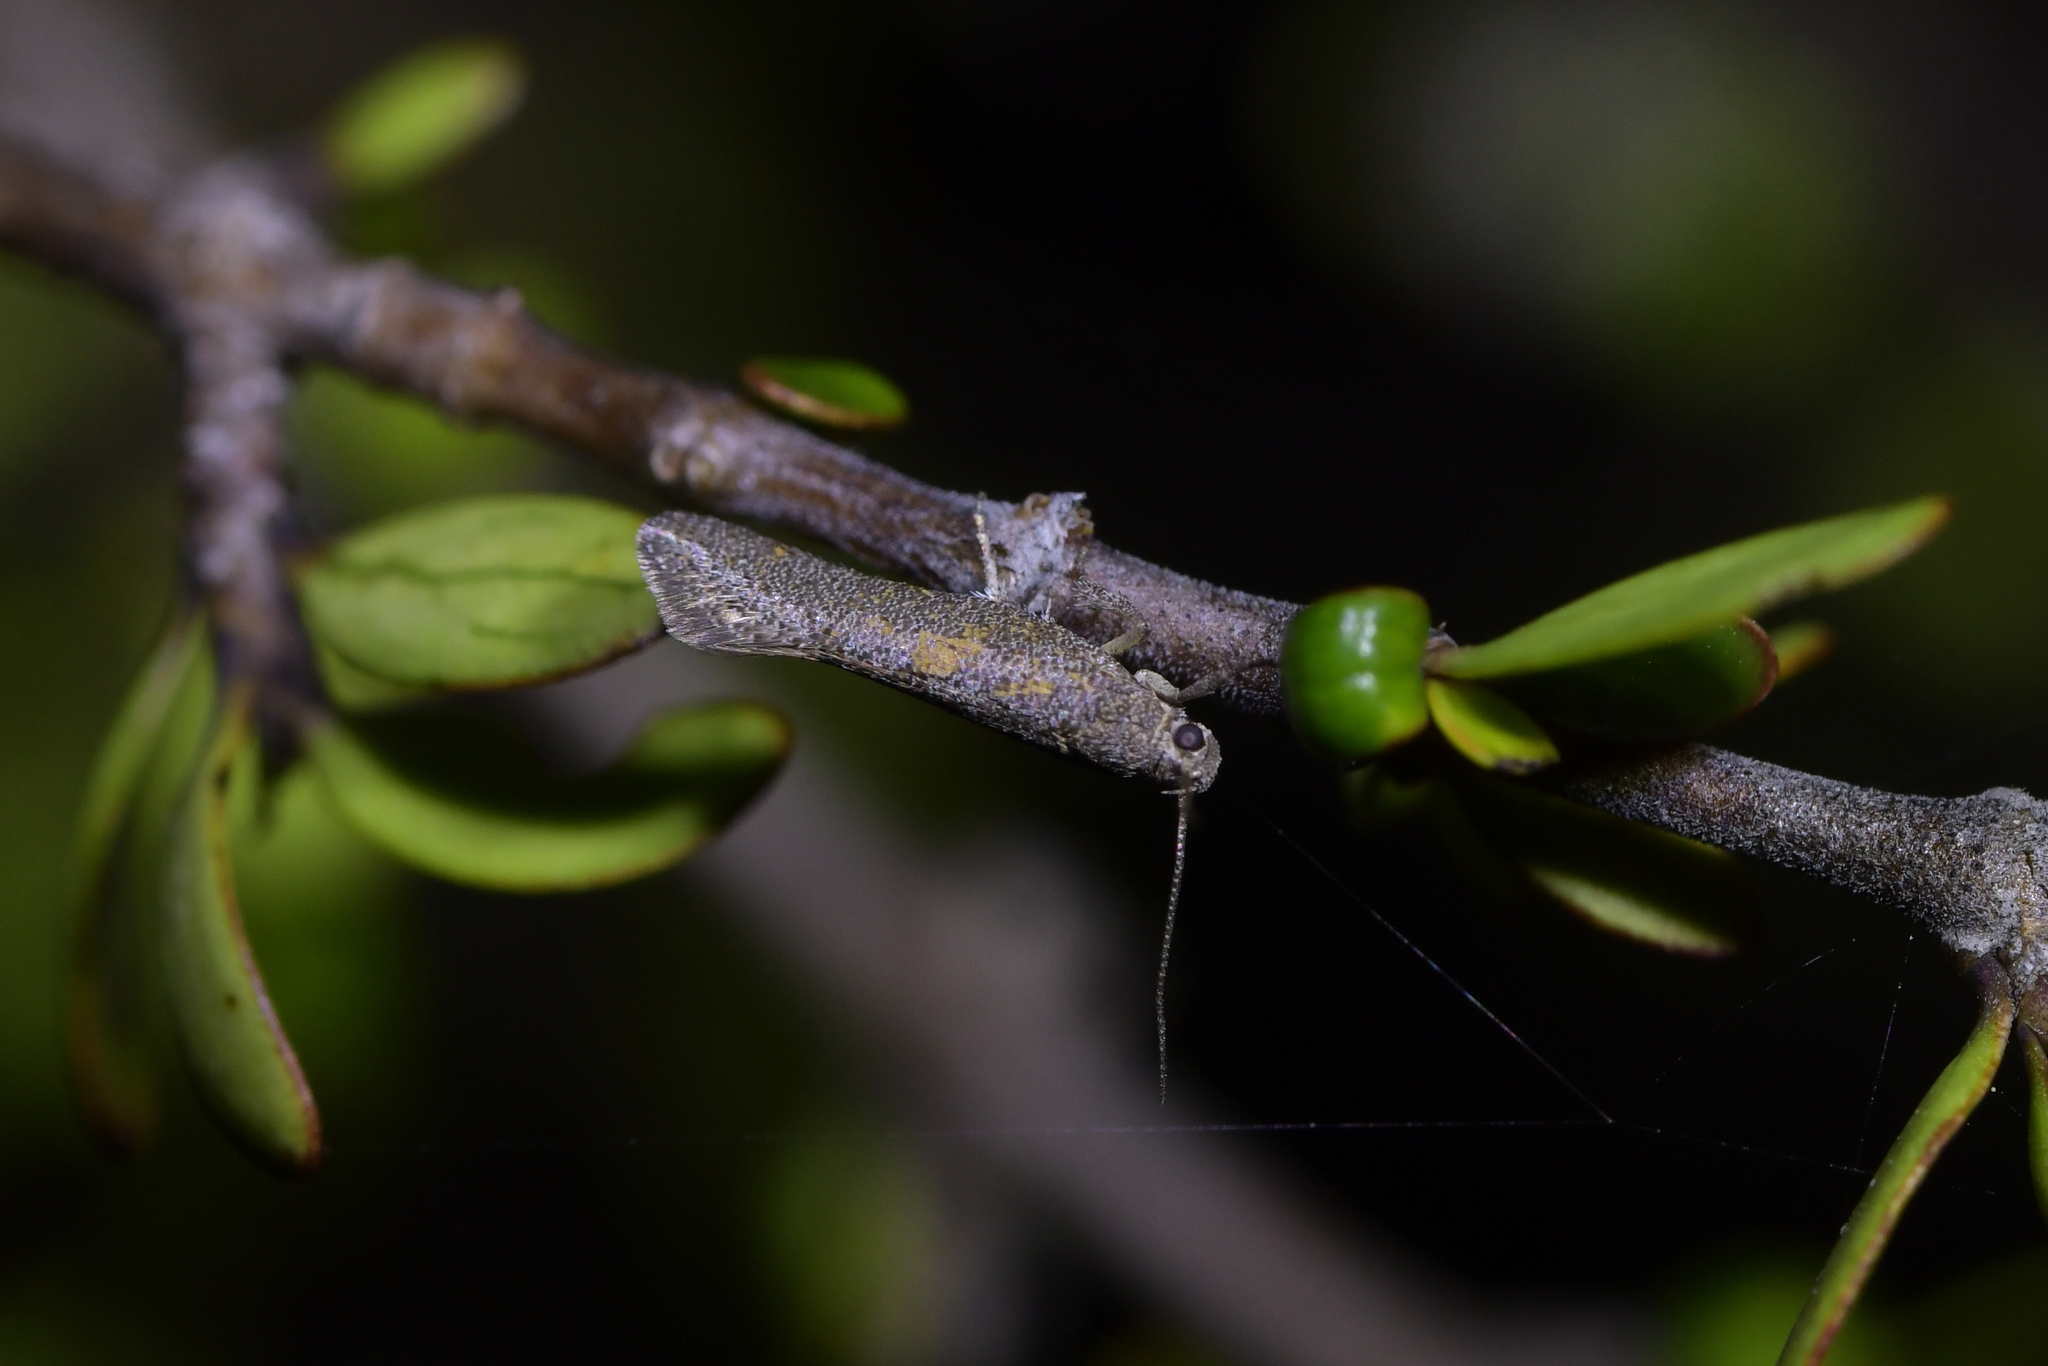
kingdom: Animalia
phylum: Arthropoda
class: Insecta
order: Lepidoptera
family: Oecophoridae
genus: Tingena
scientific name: Tingena siderodeta
